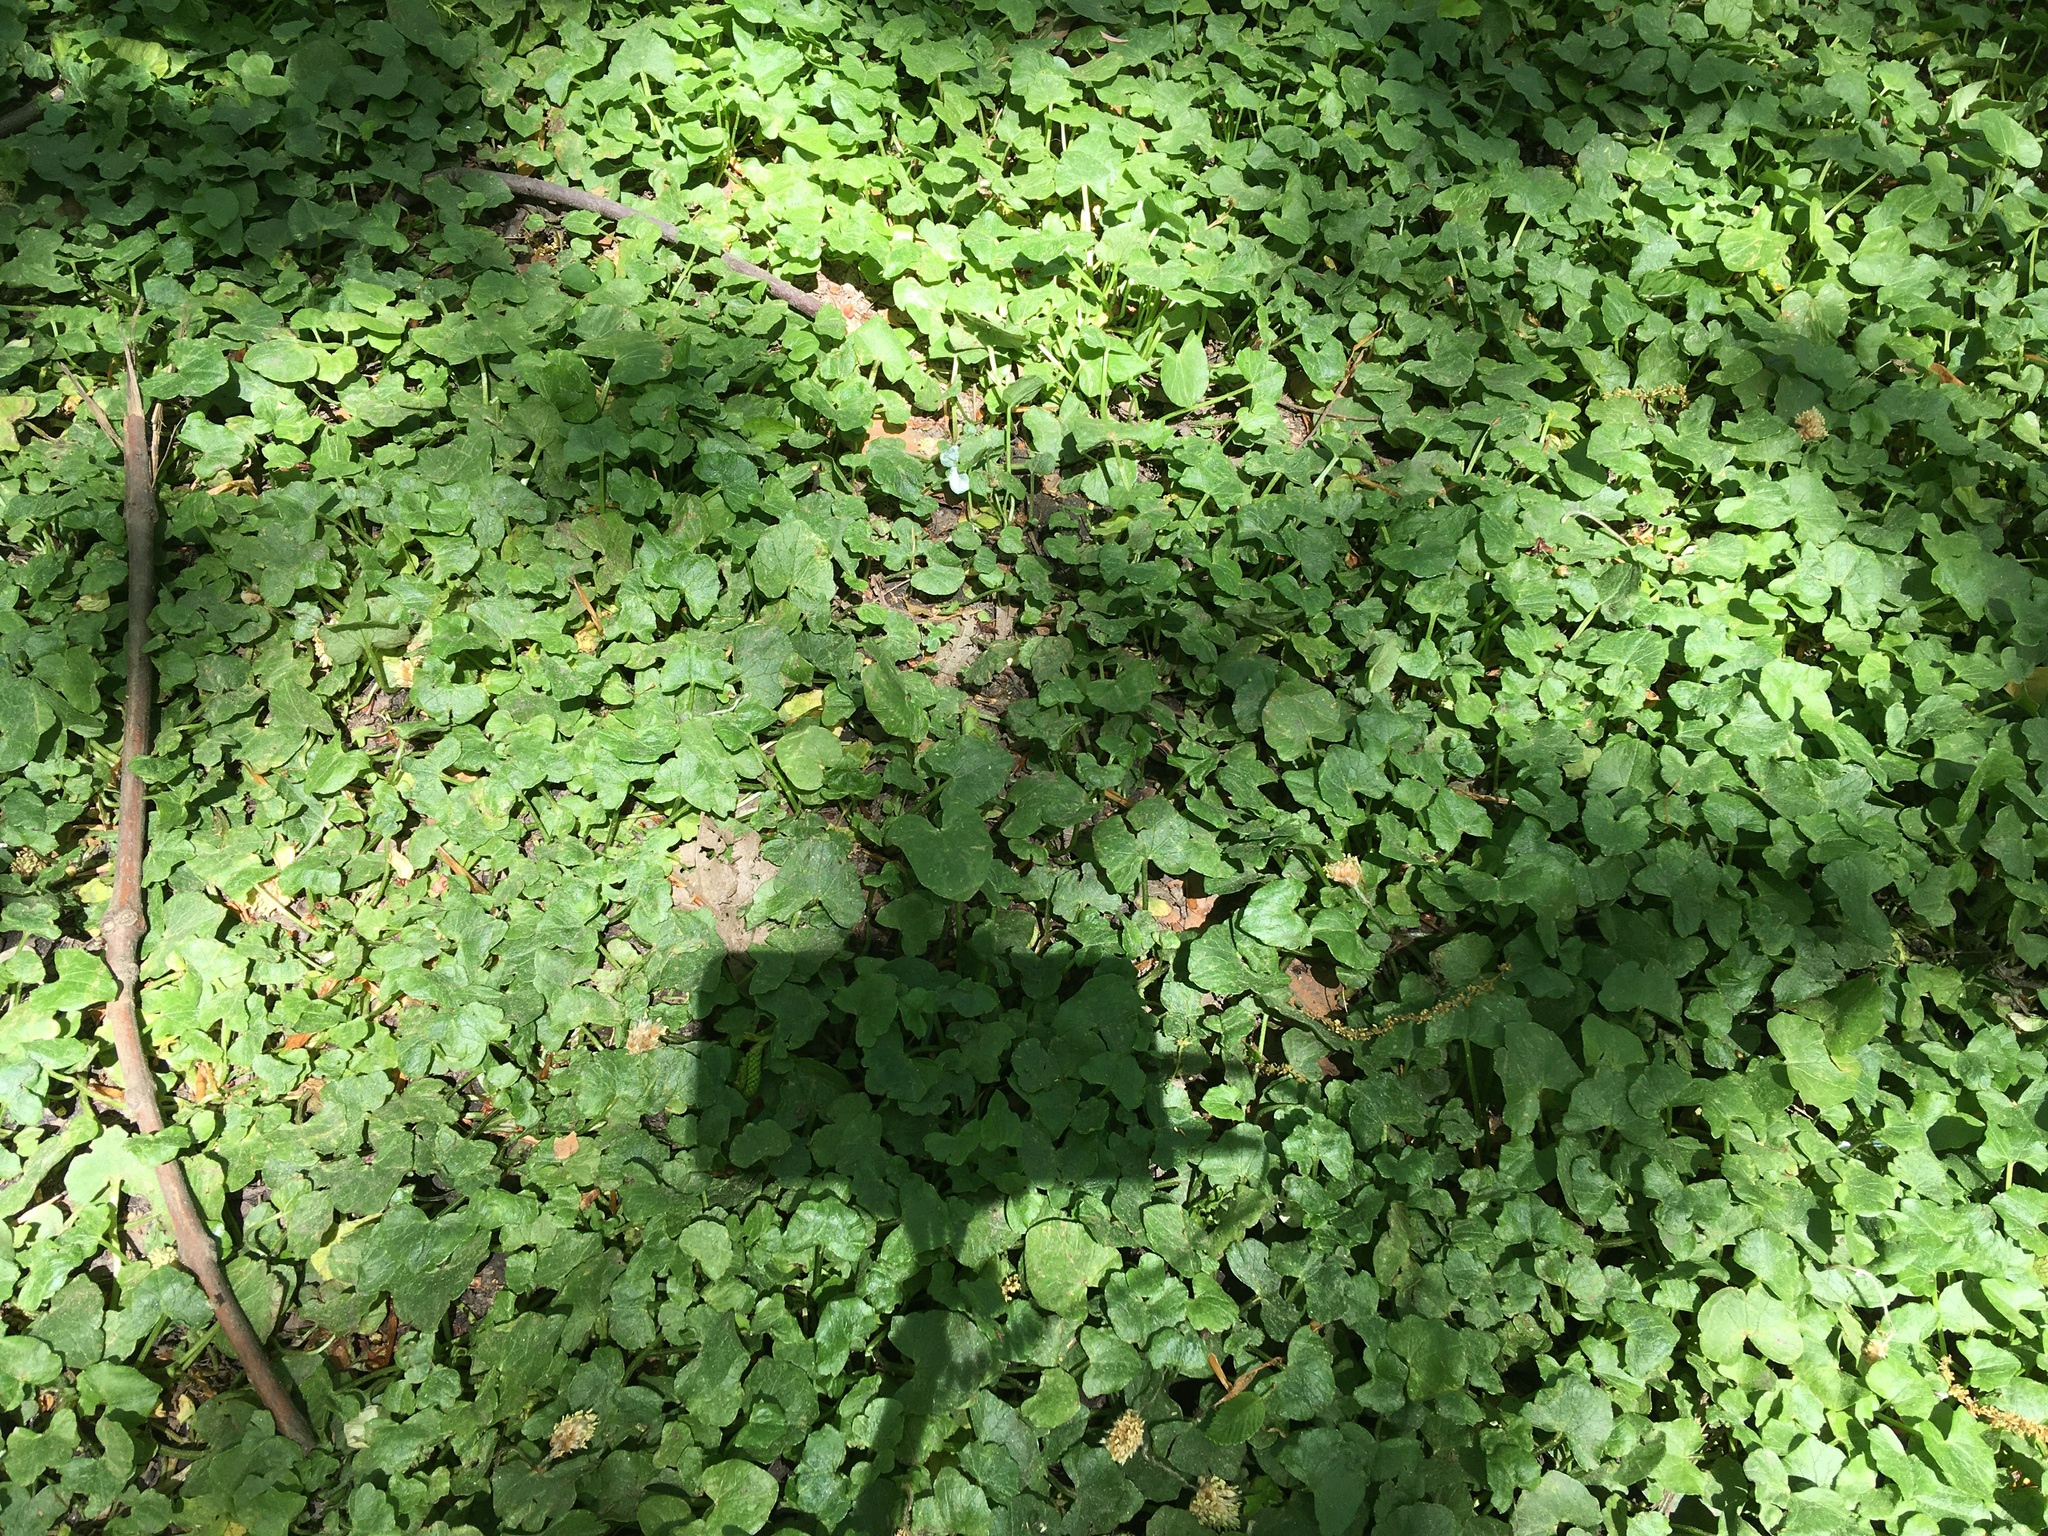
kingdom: Plantae
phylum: Tracheophyta
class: Magnoliopsida
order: Ranunculales
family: Ranunculaceae
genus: Ficaria
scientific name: Ficaria verna
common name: Lesser celandine
